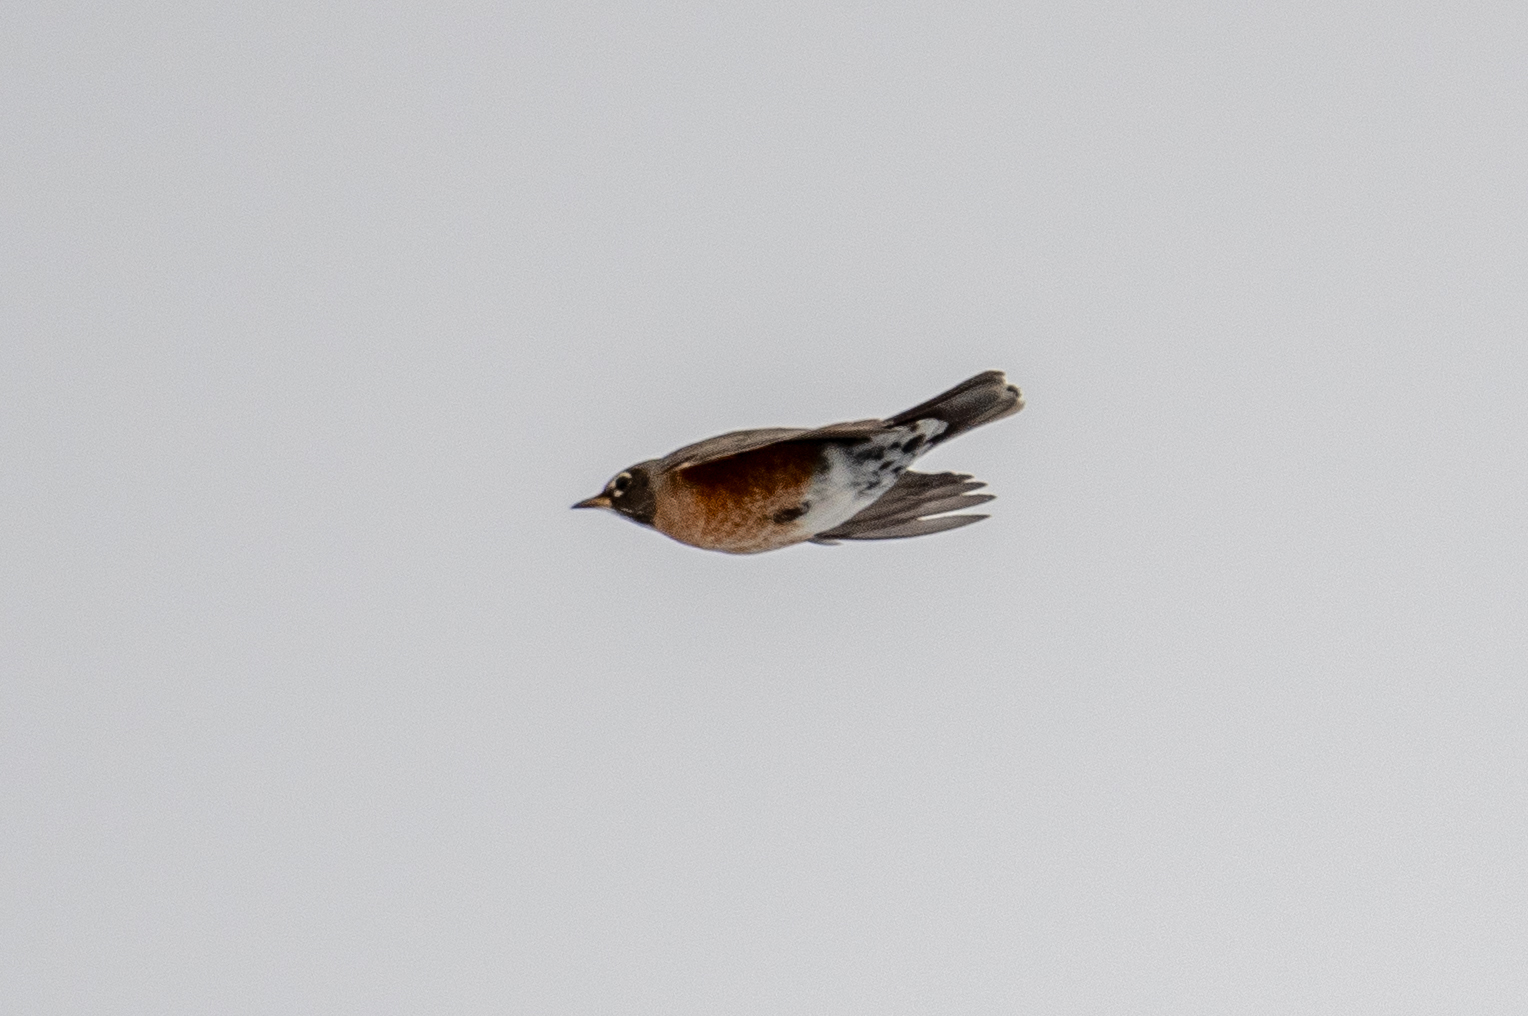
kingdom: Animalia
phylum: Chordata
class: Aves
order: Passeriformes
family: Turdidae
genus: Turdus
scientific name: Turdus migratorius
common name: American robin
